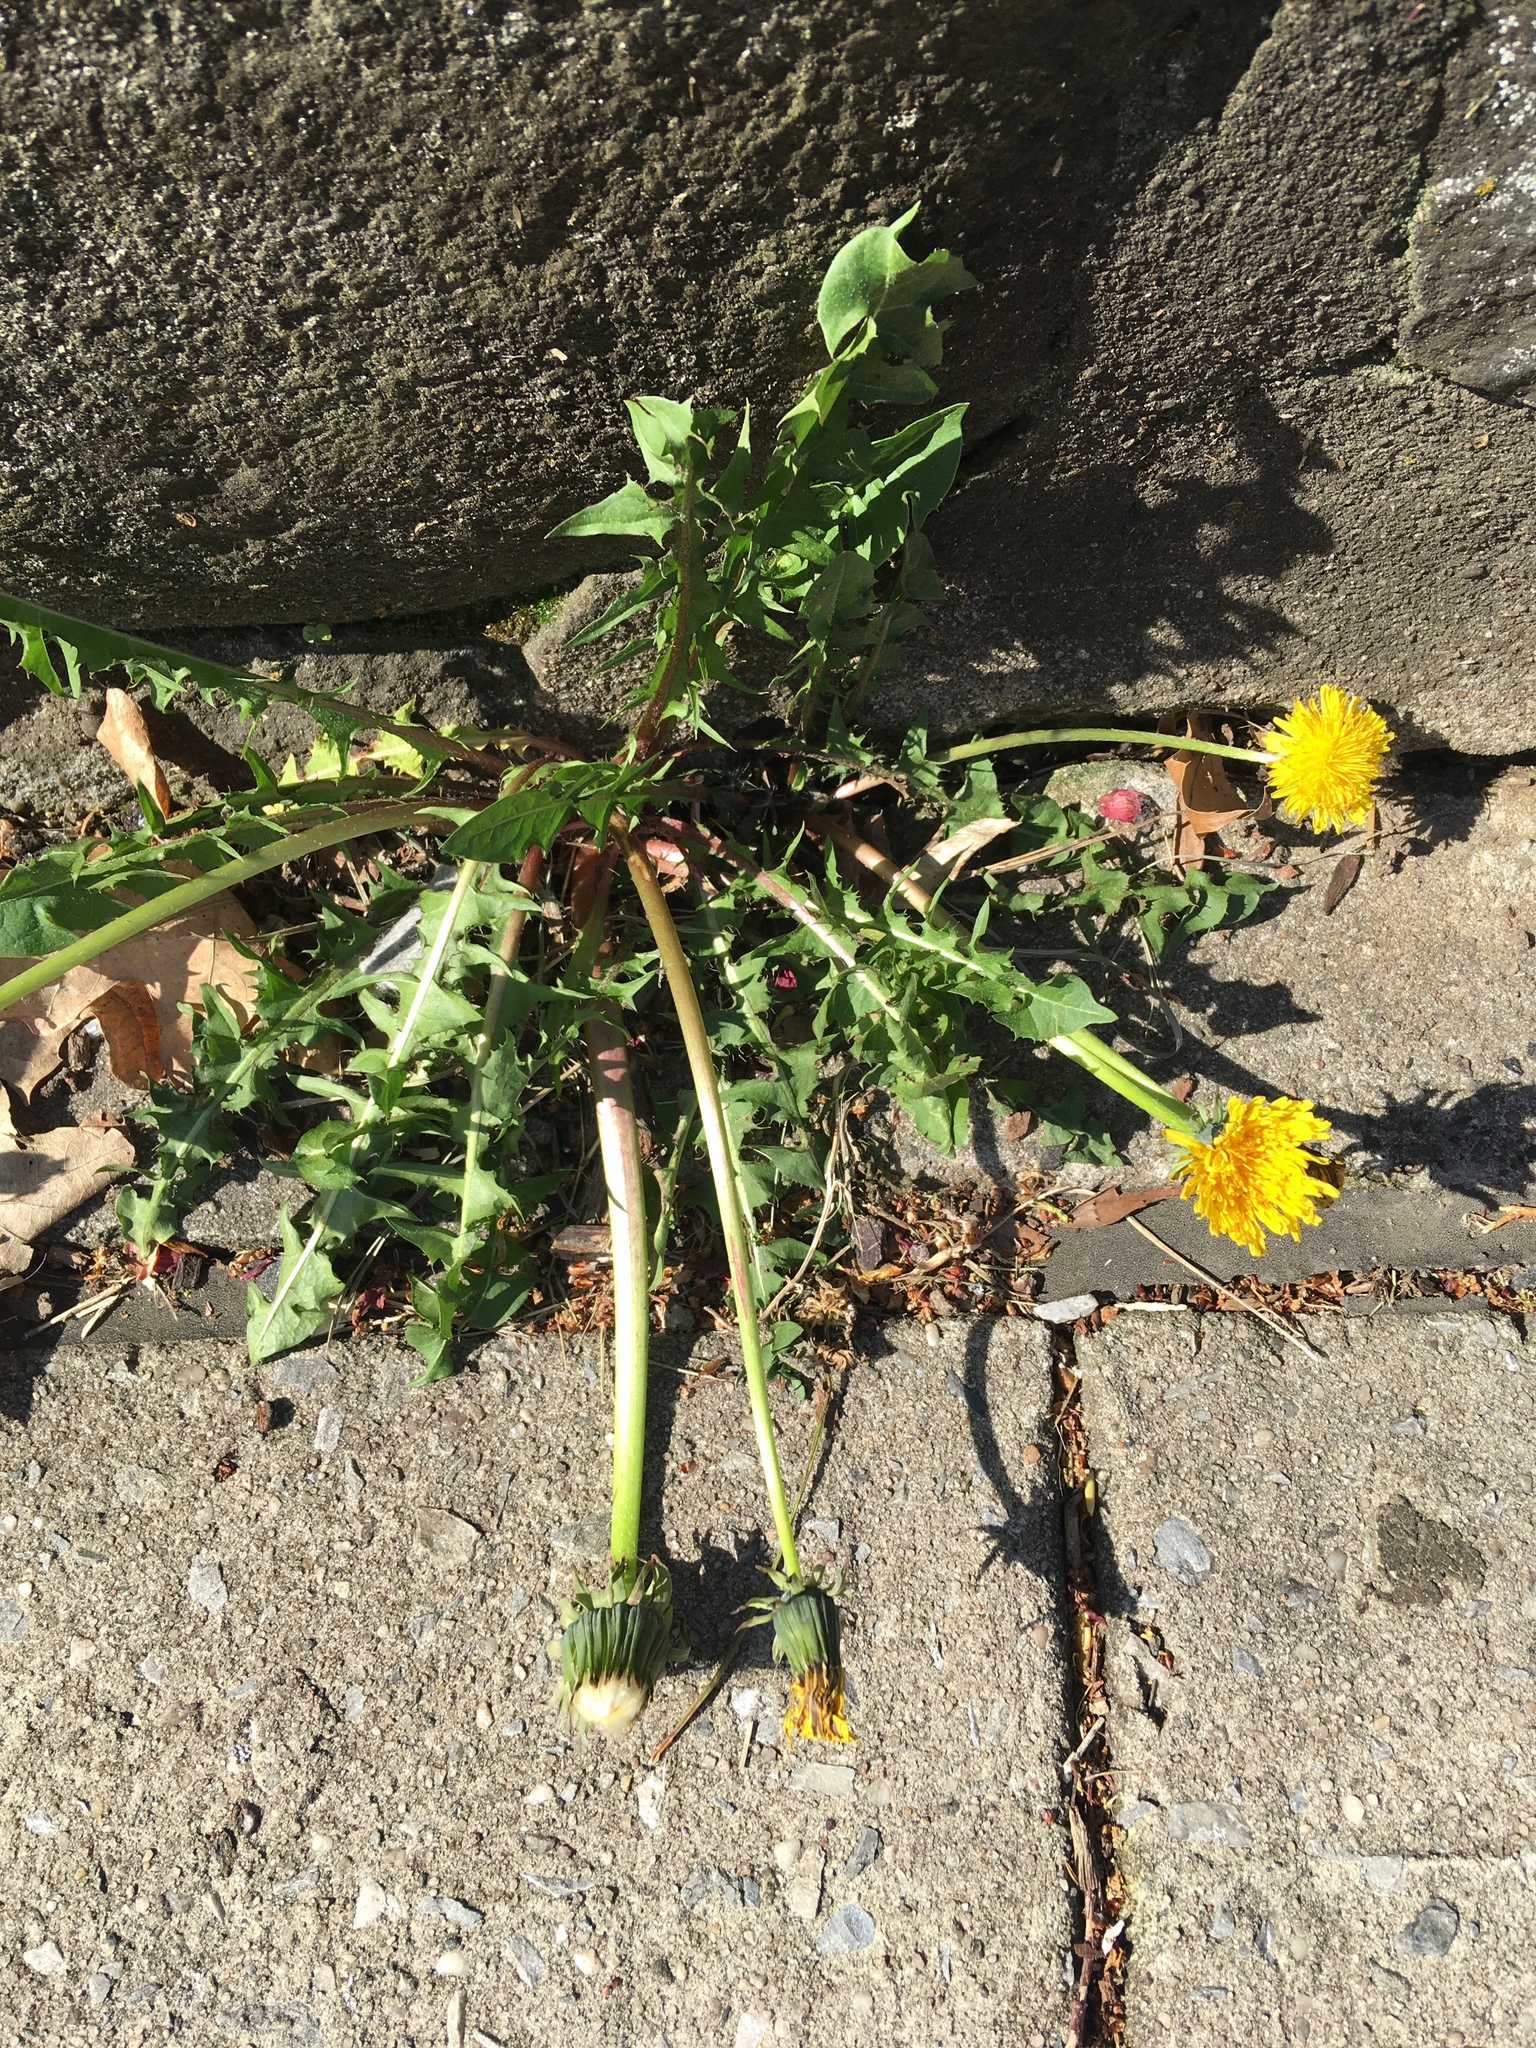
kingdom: Plantae
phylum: Tracheophyta
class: Magnoliopsida
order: Asterales
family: Asteraceae
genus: Taraxacum
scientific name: Taraxacum officinale
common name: Common dandelion
